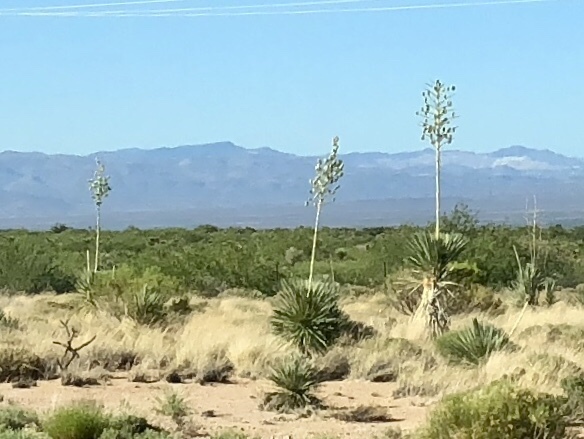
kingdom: Plantae
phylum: Tracheophyta
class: Liliopsida
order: Asparagales
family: Asparagaceae
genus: Yucca
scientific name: Yucca elata
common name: Palmella
